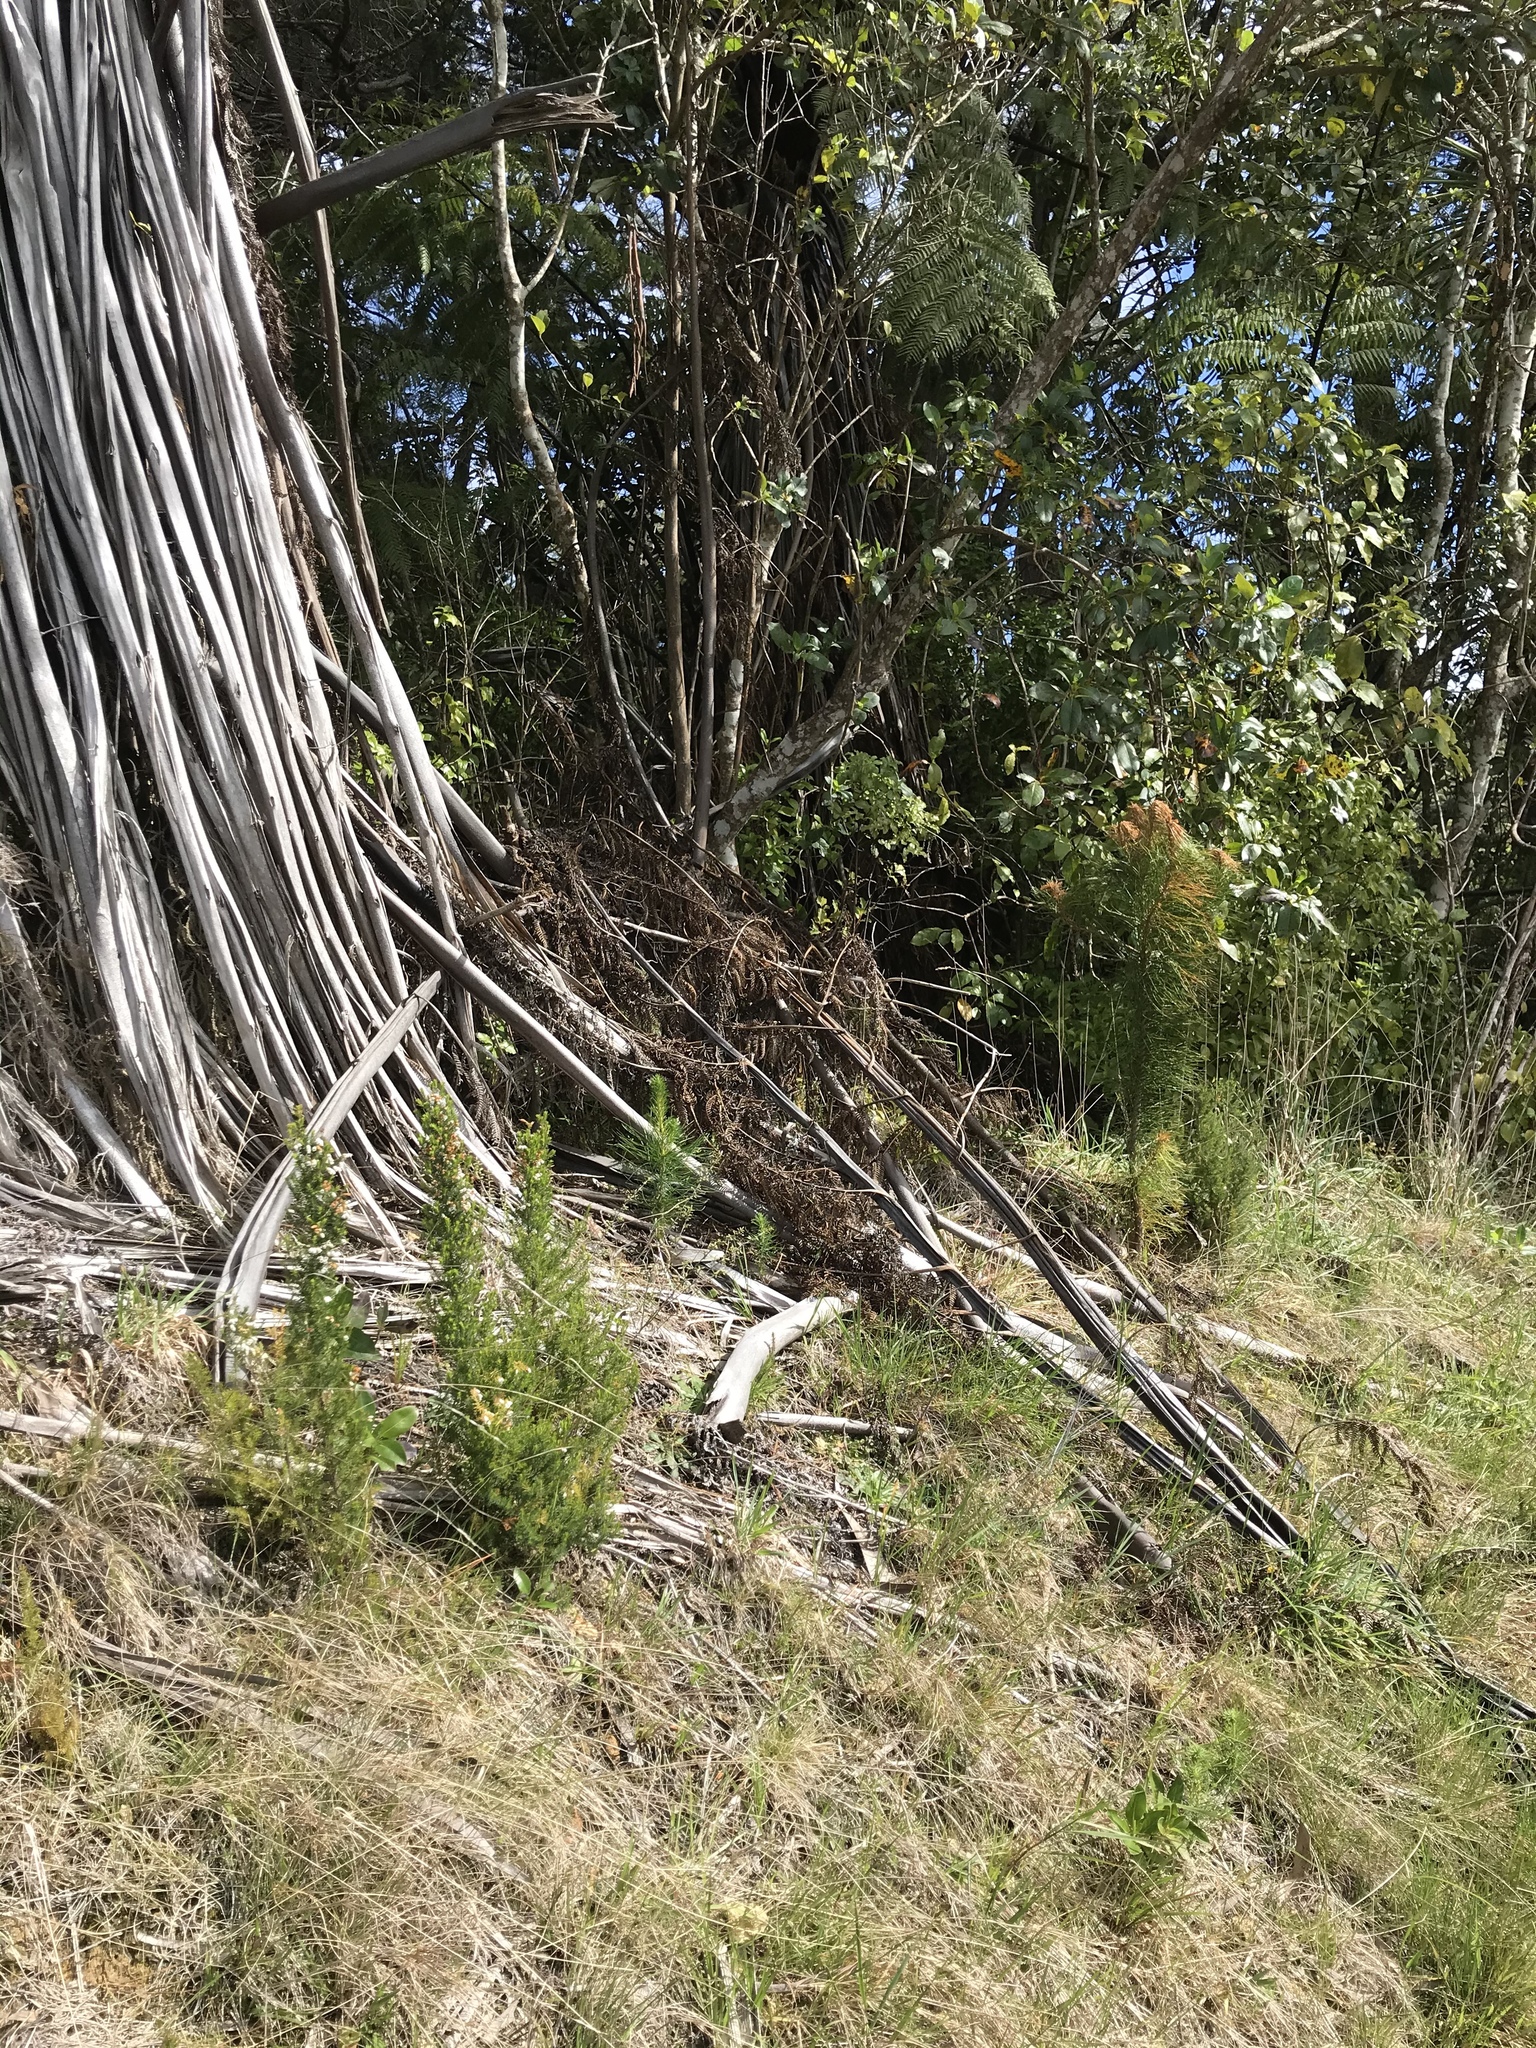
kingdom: Plantae
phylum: Tracheophyta
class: Pinopsida
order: Pinales
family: Pinaceae
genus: Pinus
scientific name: Pinus radiata
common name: Monterey pine
